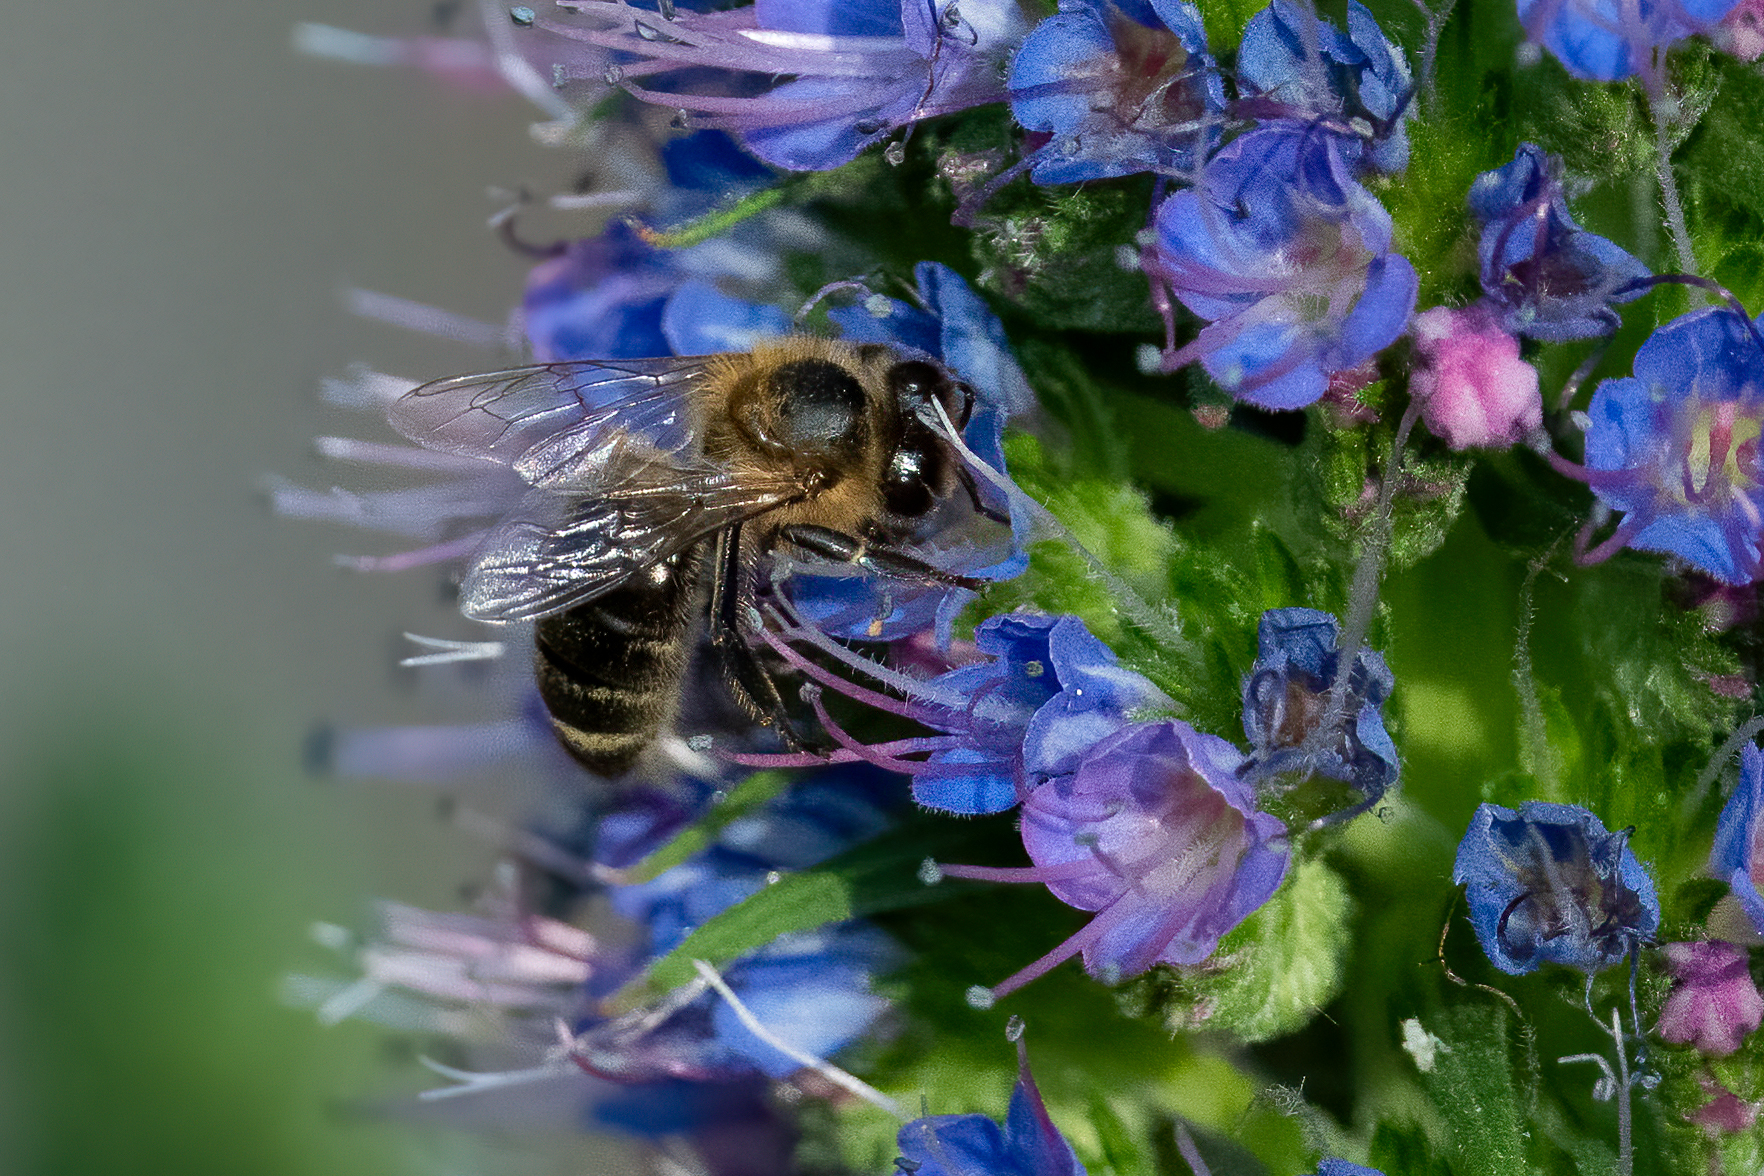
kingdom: Animalia
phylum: Arthropoda
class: Insecta
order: Hymenoptera
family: Apidae
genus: Apis
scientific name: Apis mellifera
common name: Honey bee
